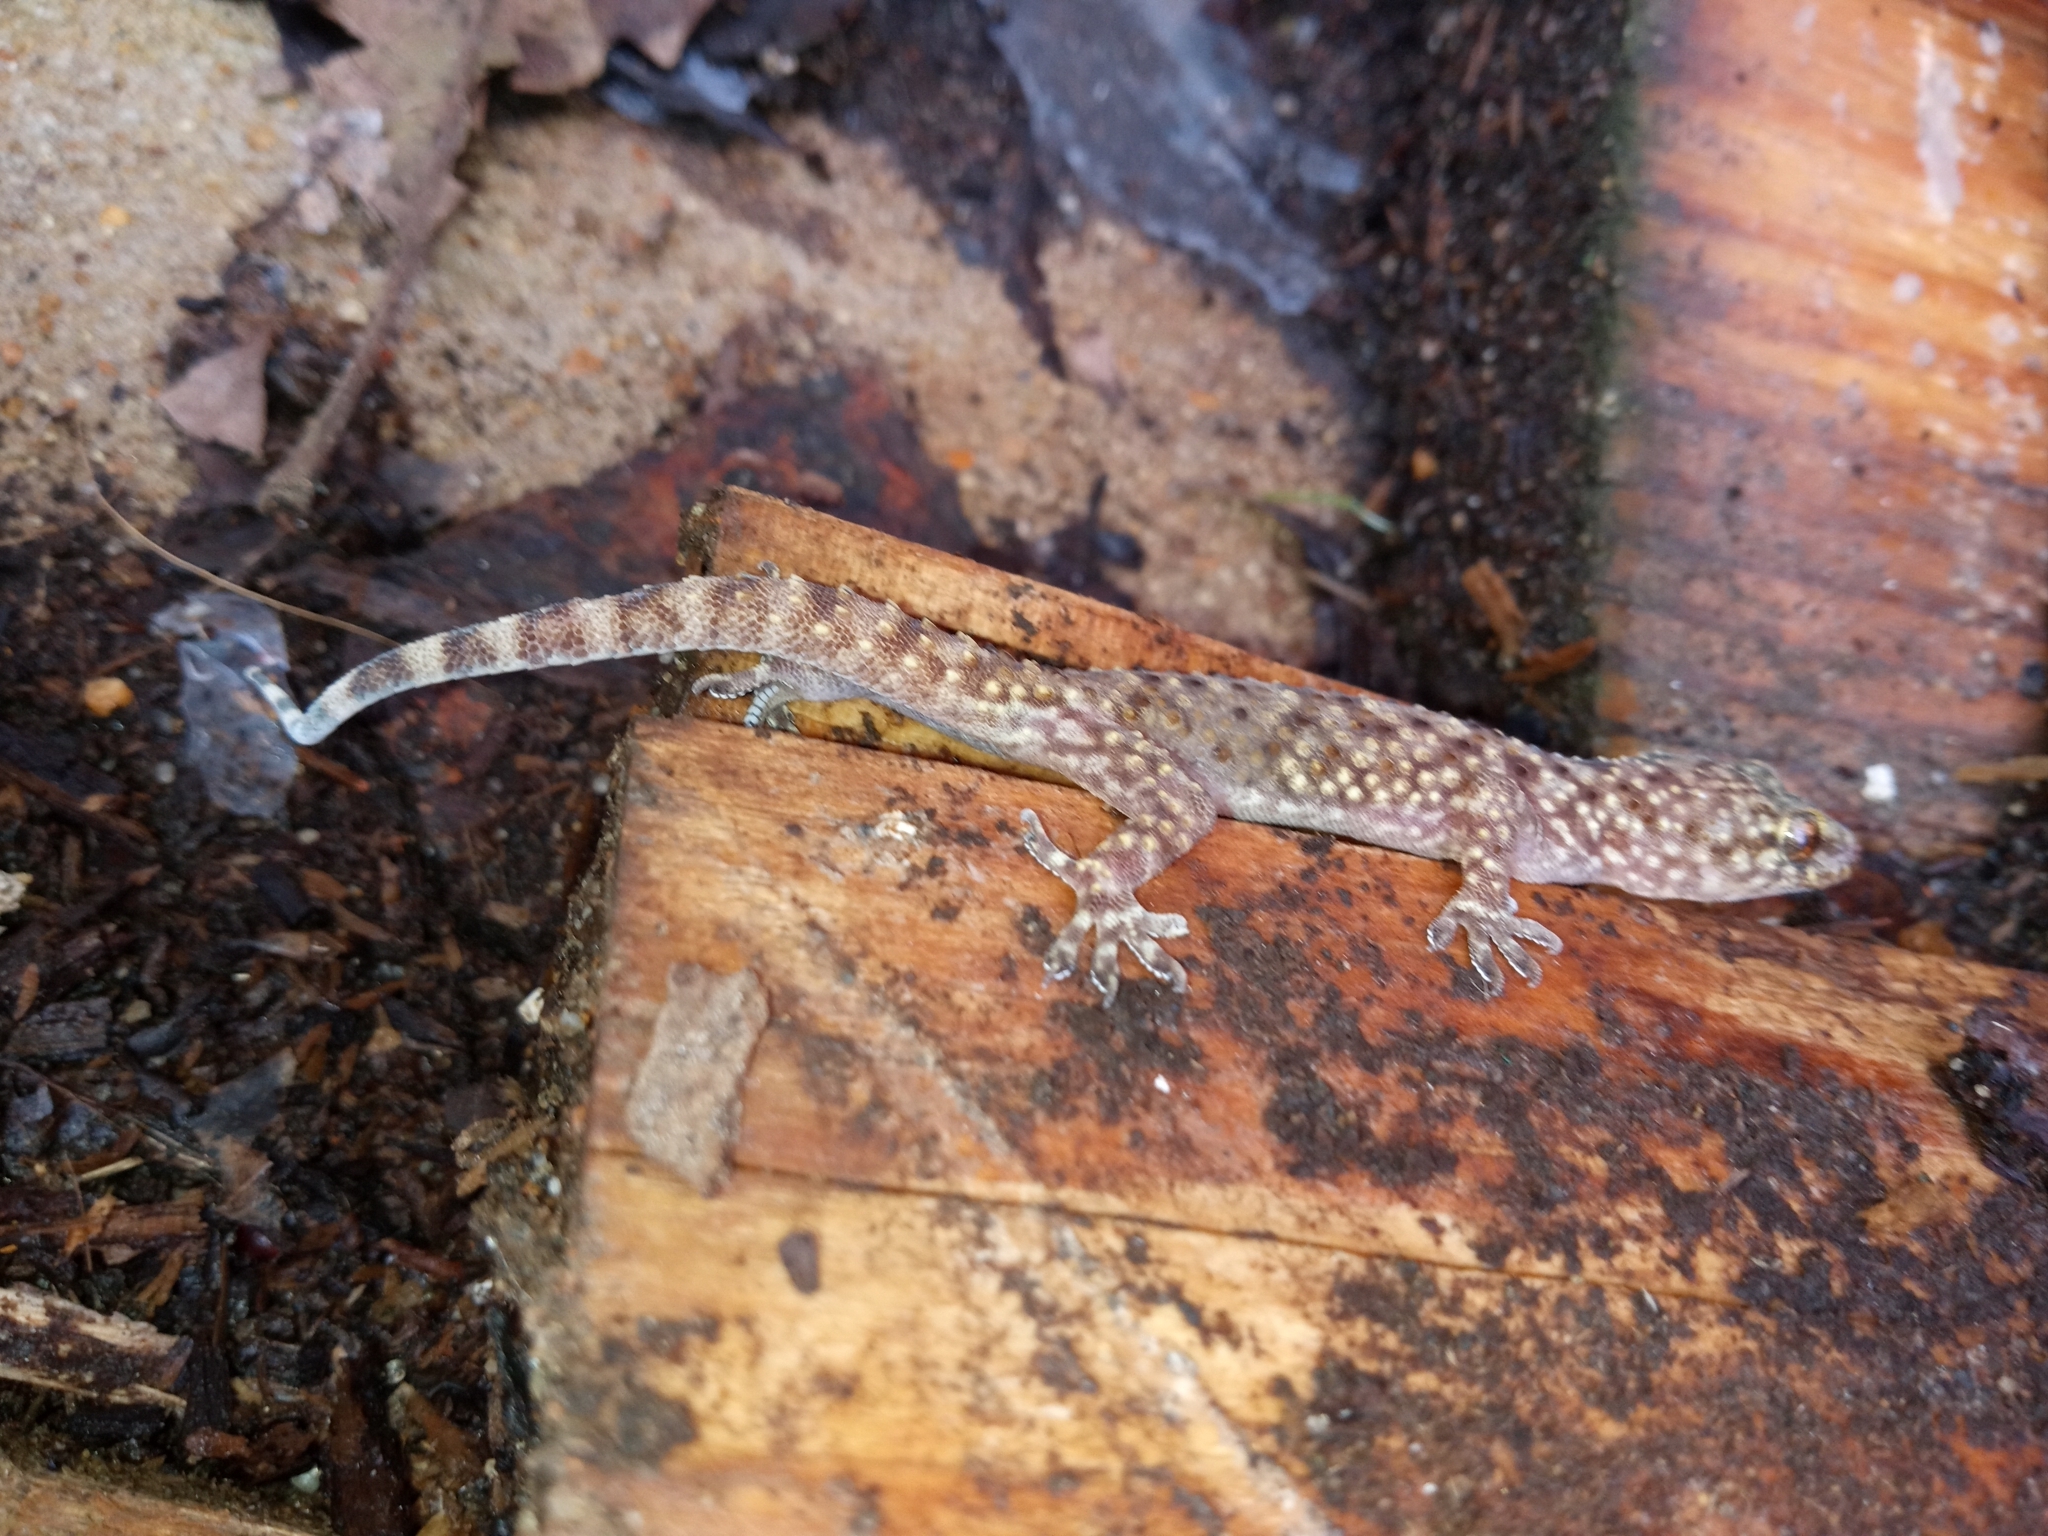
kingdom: Animalia
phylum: Chordata
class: Squamata
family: Gekkonidae
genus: Hemidactylus
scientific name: Hemidactylus turcicus
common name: Turkish gecko
